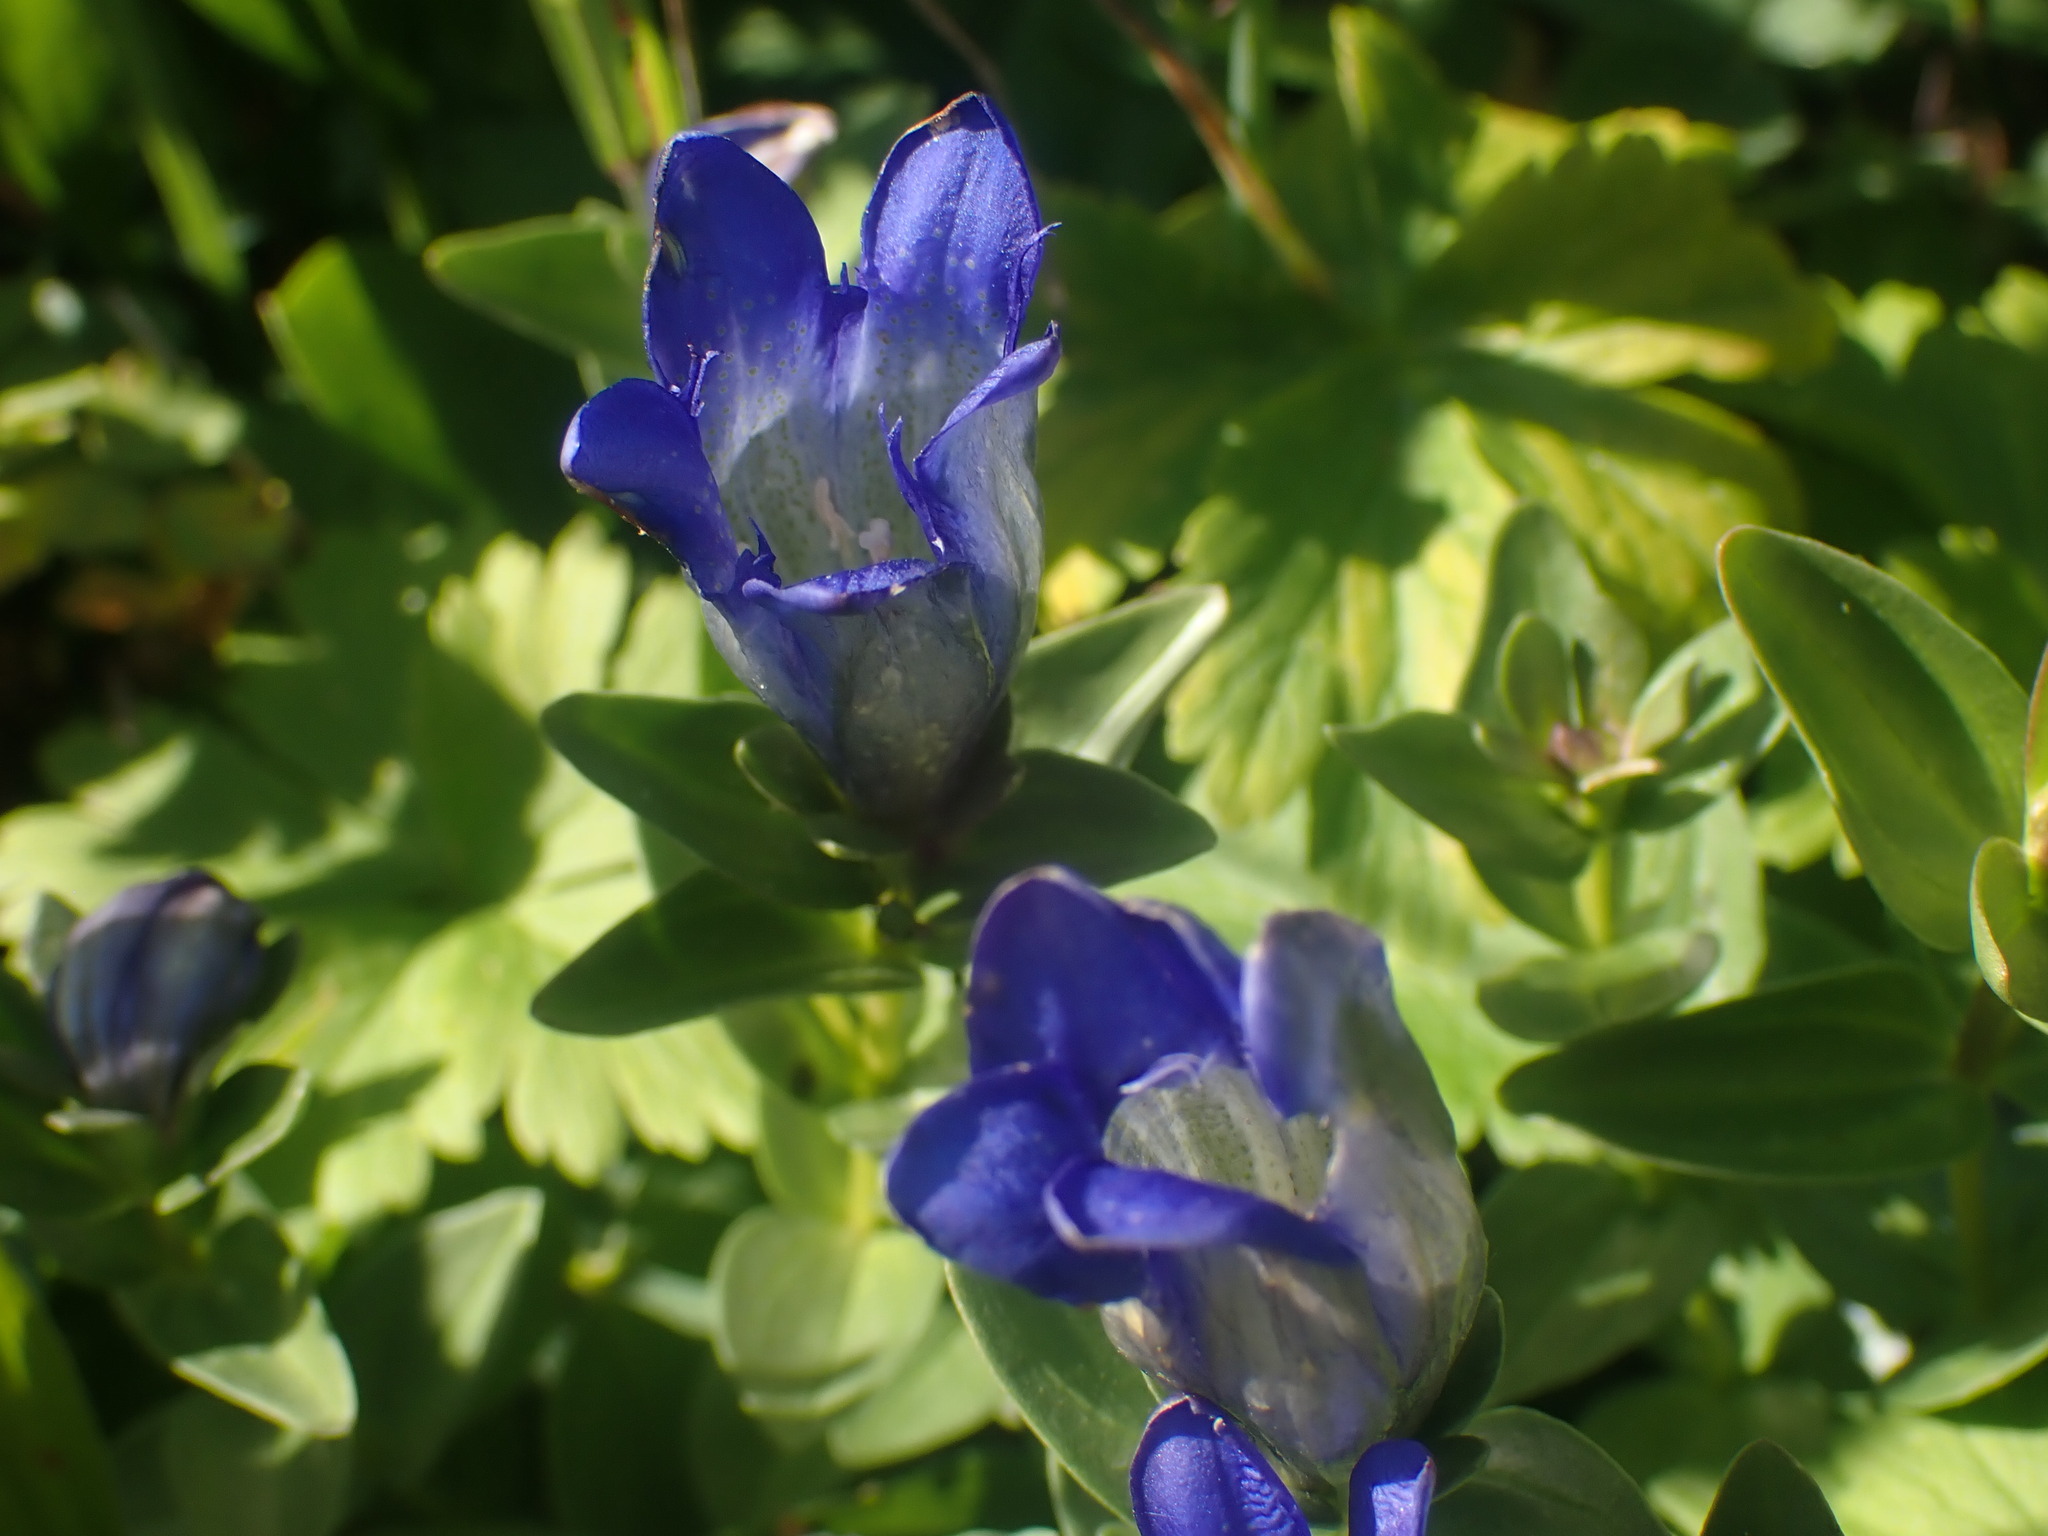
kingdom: Plantae
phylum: Tracheophyta
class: Magnoliopsida
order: Gentianales
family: Gentianaceae
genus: Gentiana
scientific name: Gentiana calycosa
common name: Rainier pleated gentian
